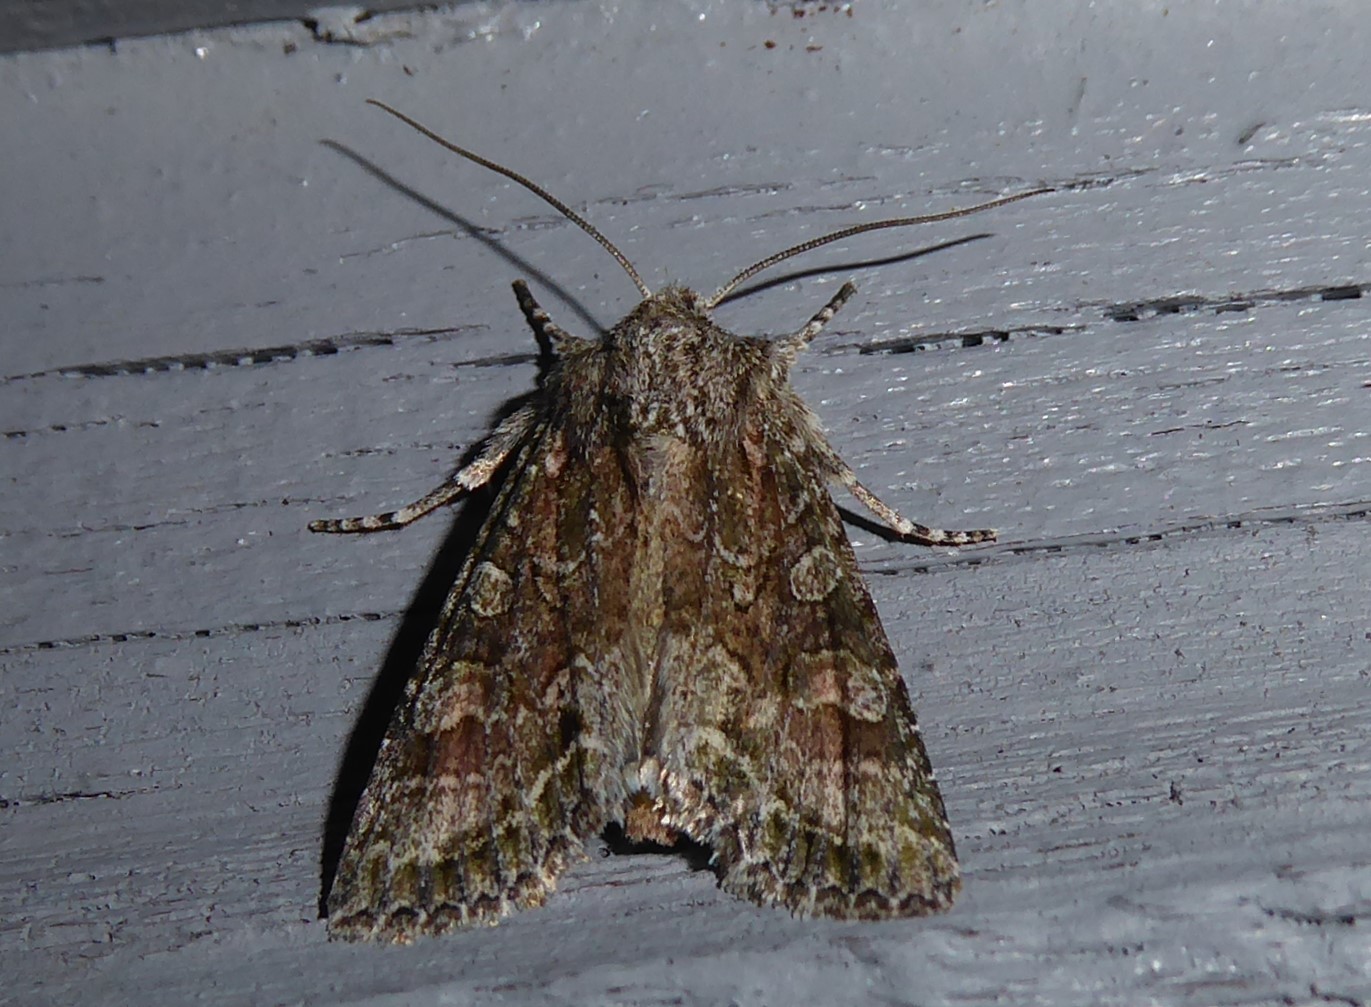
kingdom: Animalia
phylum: Arthropoda
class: Insecta
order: Lepidoptera
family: Noctuidae
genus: Ichneutica
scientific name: Ichneutica mutans
